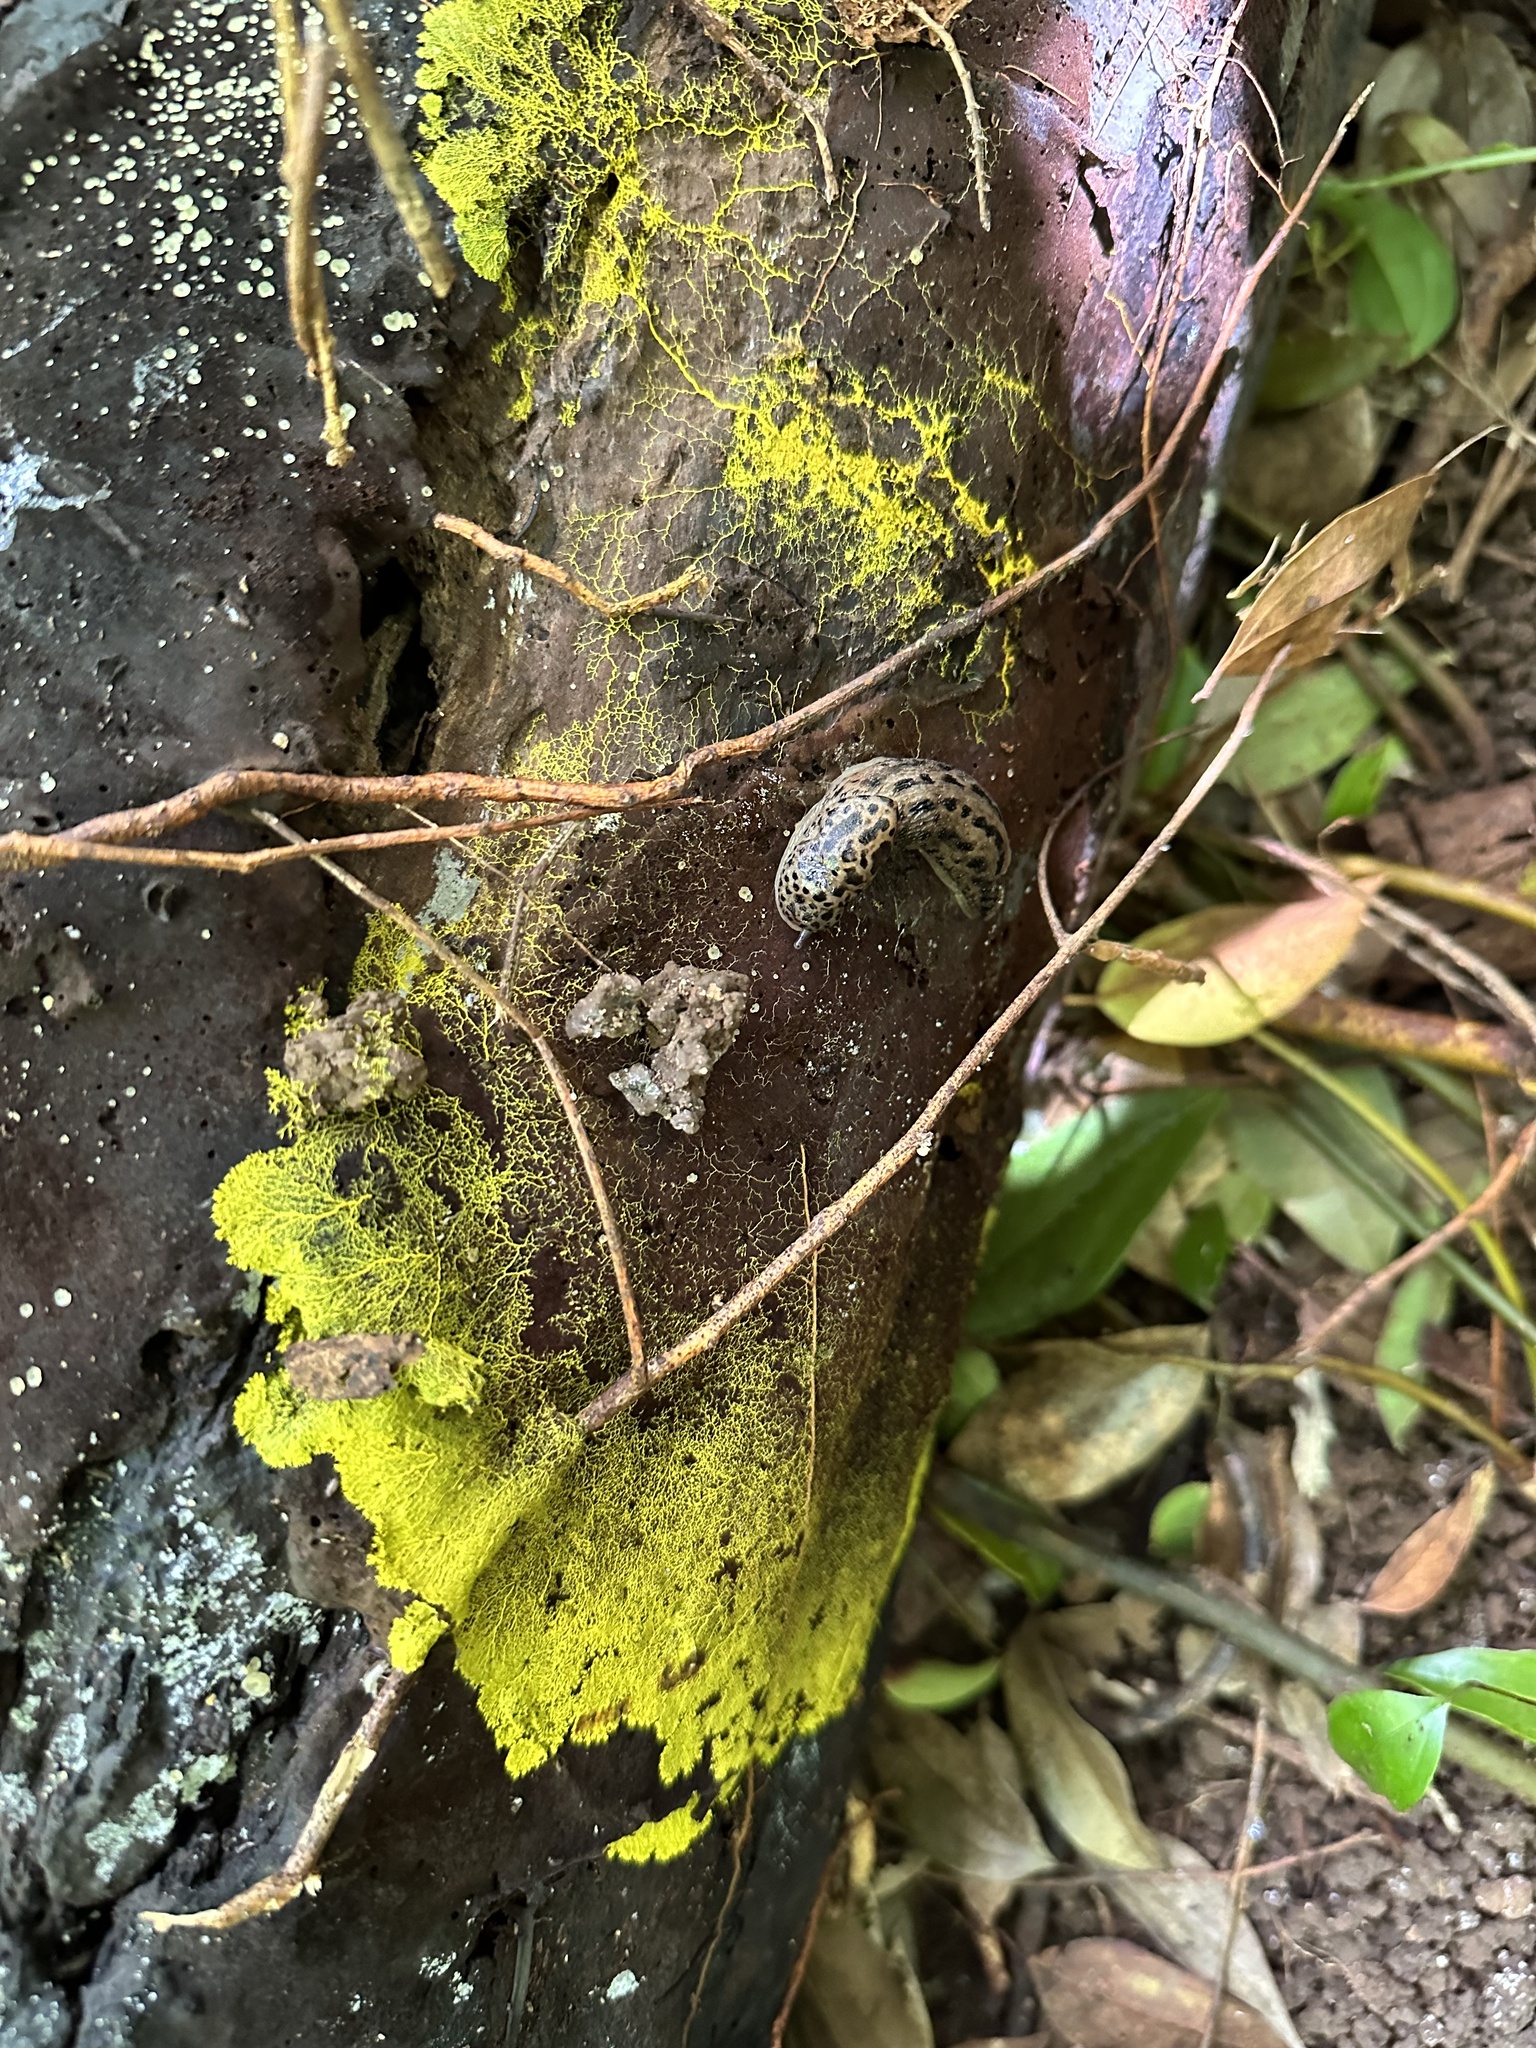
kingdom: Animalia
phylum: Mollusca
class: Gastropoda
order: Stylommatophora
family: Limacidae
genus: Limax
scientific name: Limax maximus
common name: Great grey slug
